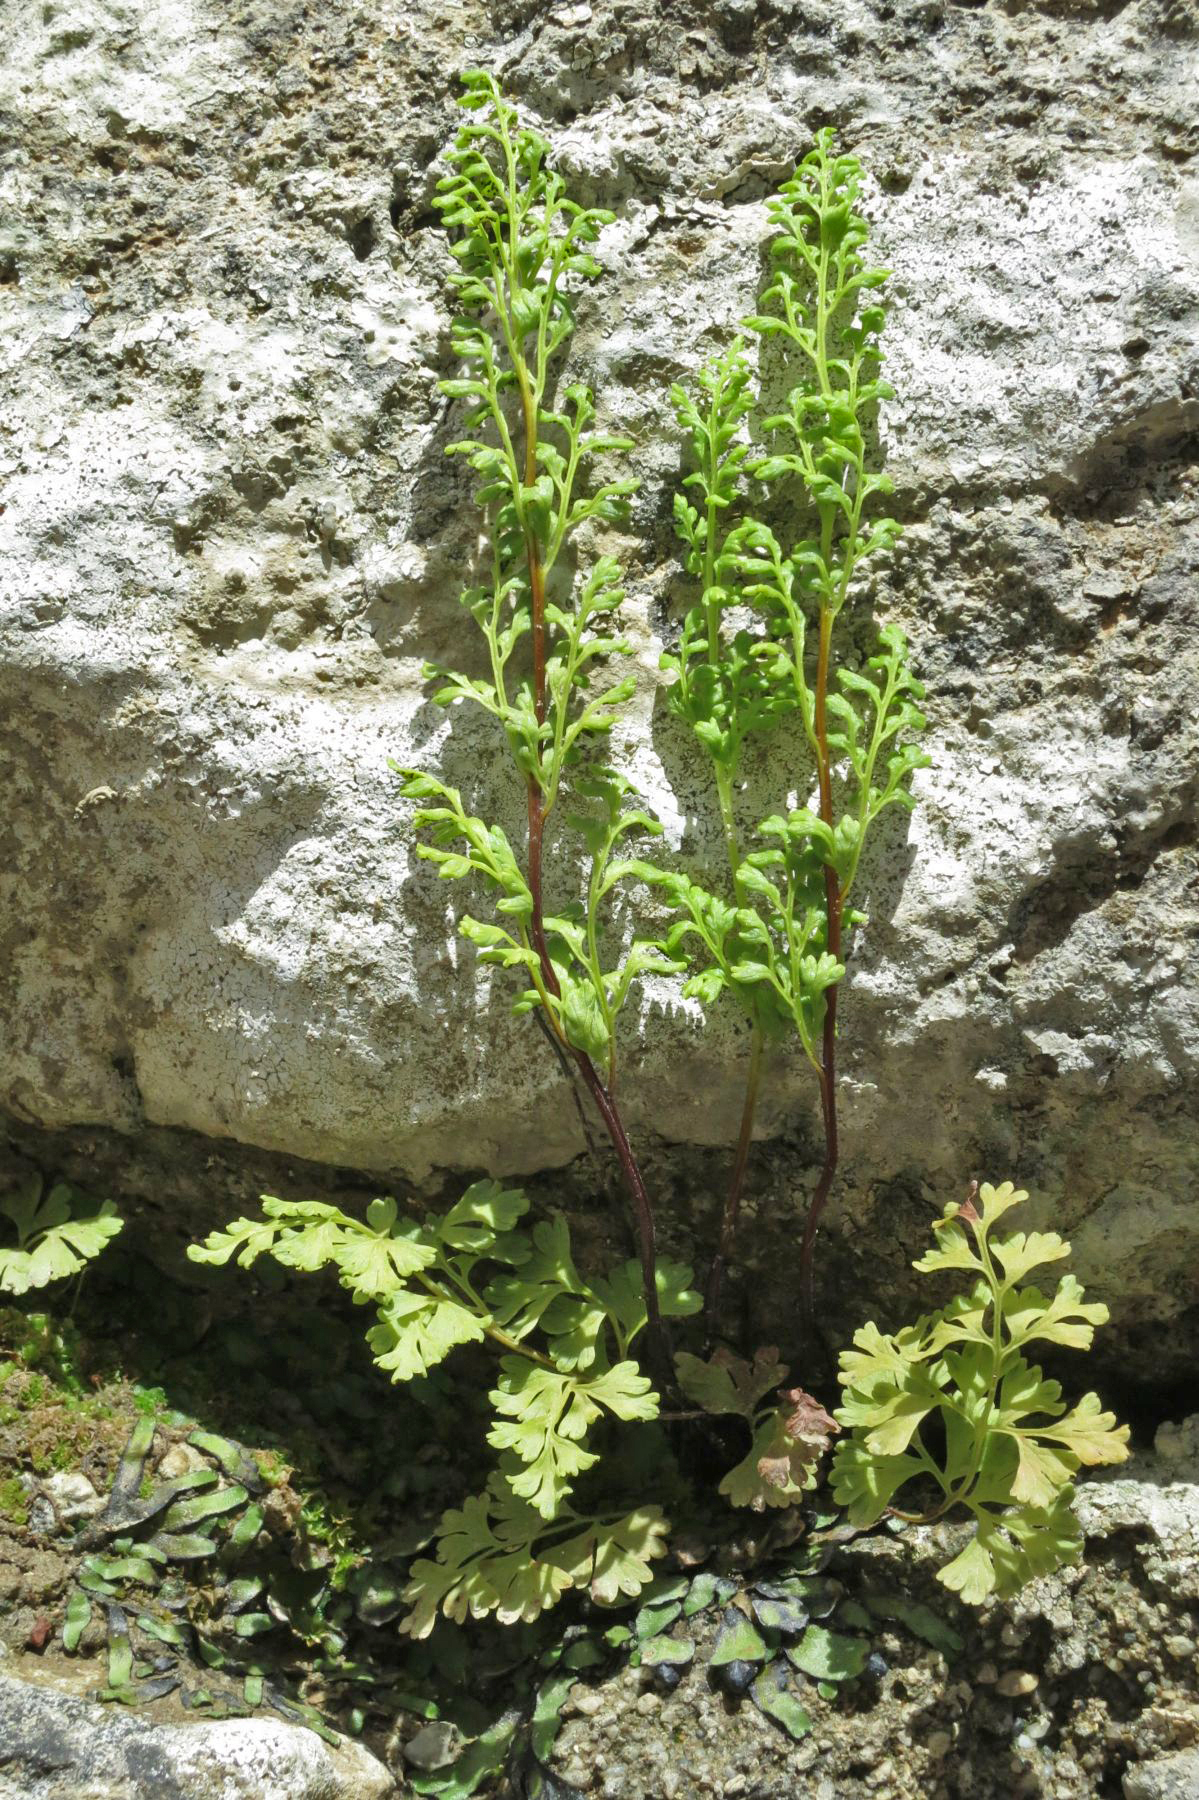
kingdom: Plantae
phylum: Tracheophyta
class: Polypodiopsida
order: Polypodiales
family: Pteridaceae
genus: Anogramma
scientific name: Anogramma leptophylla
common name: Jersey fern
